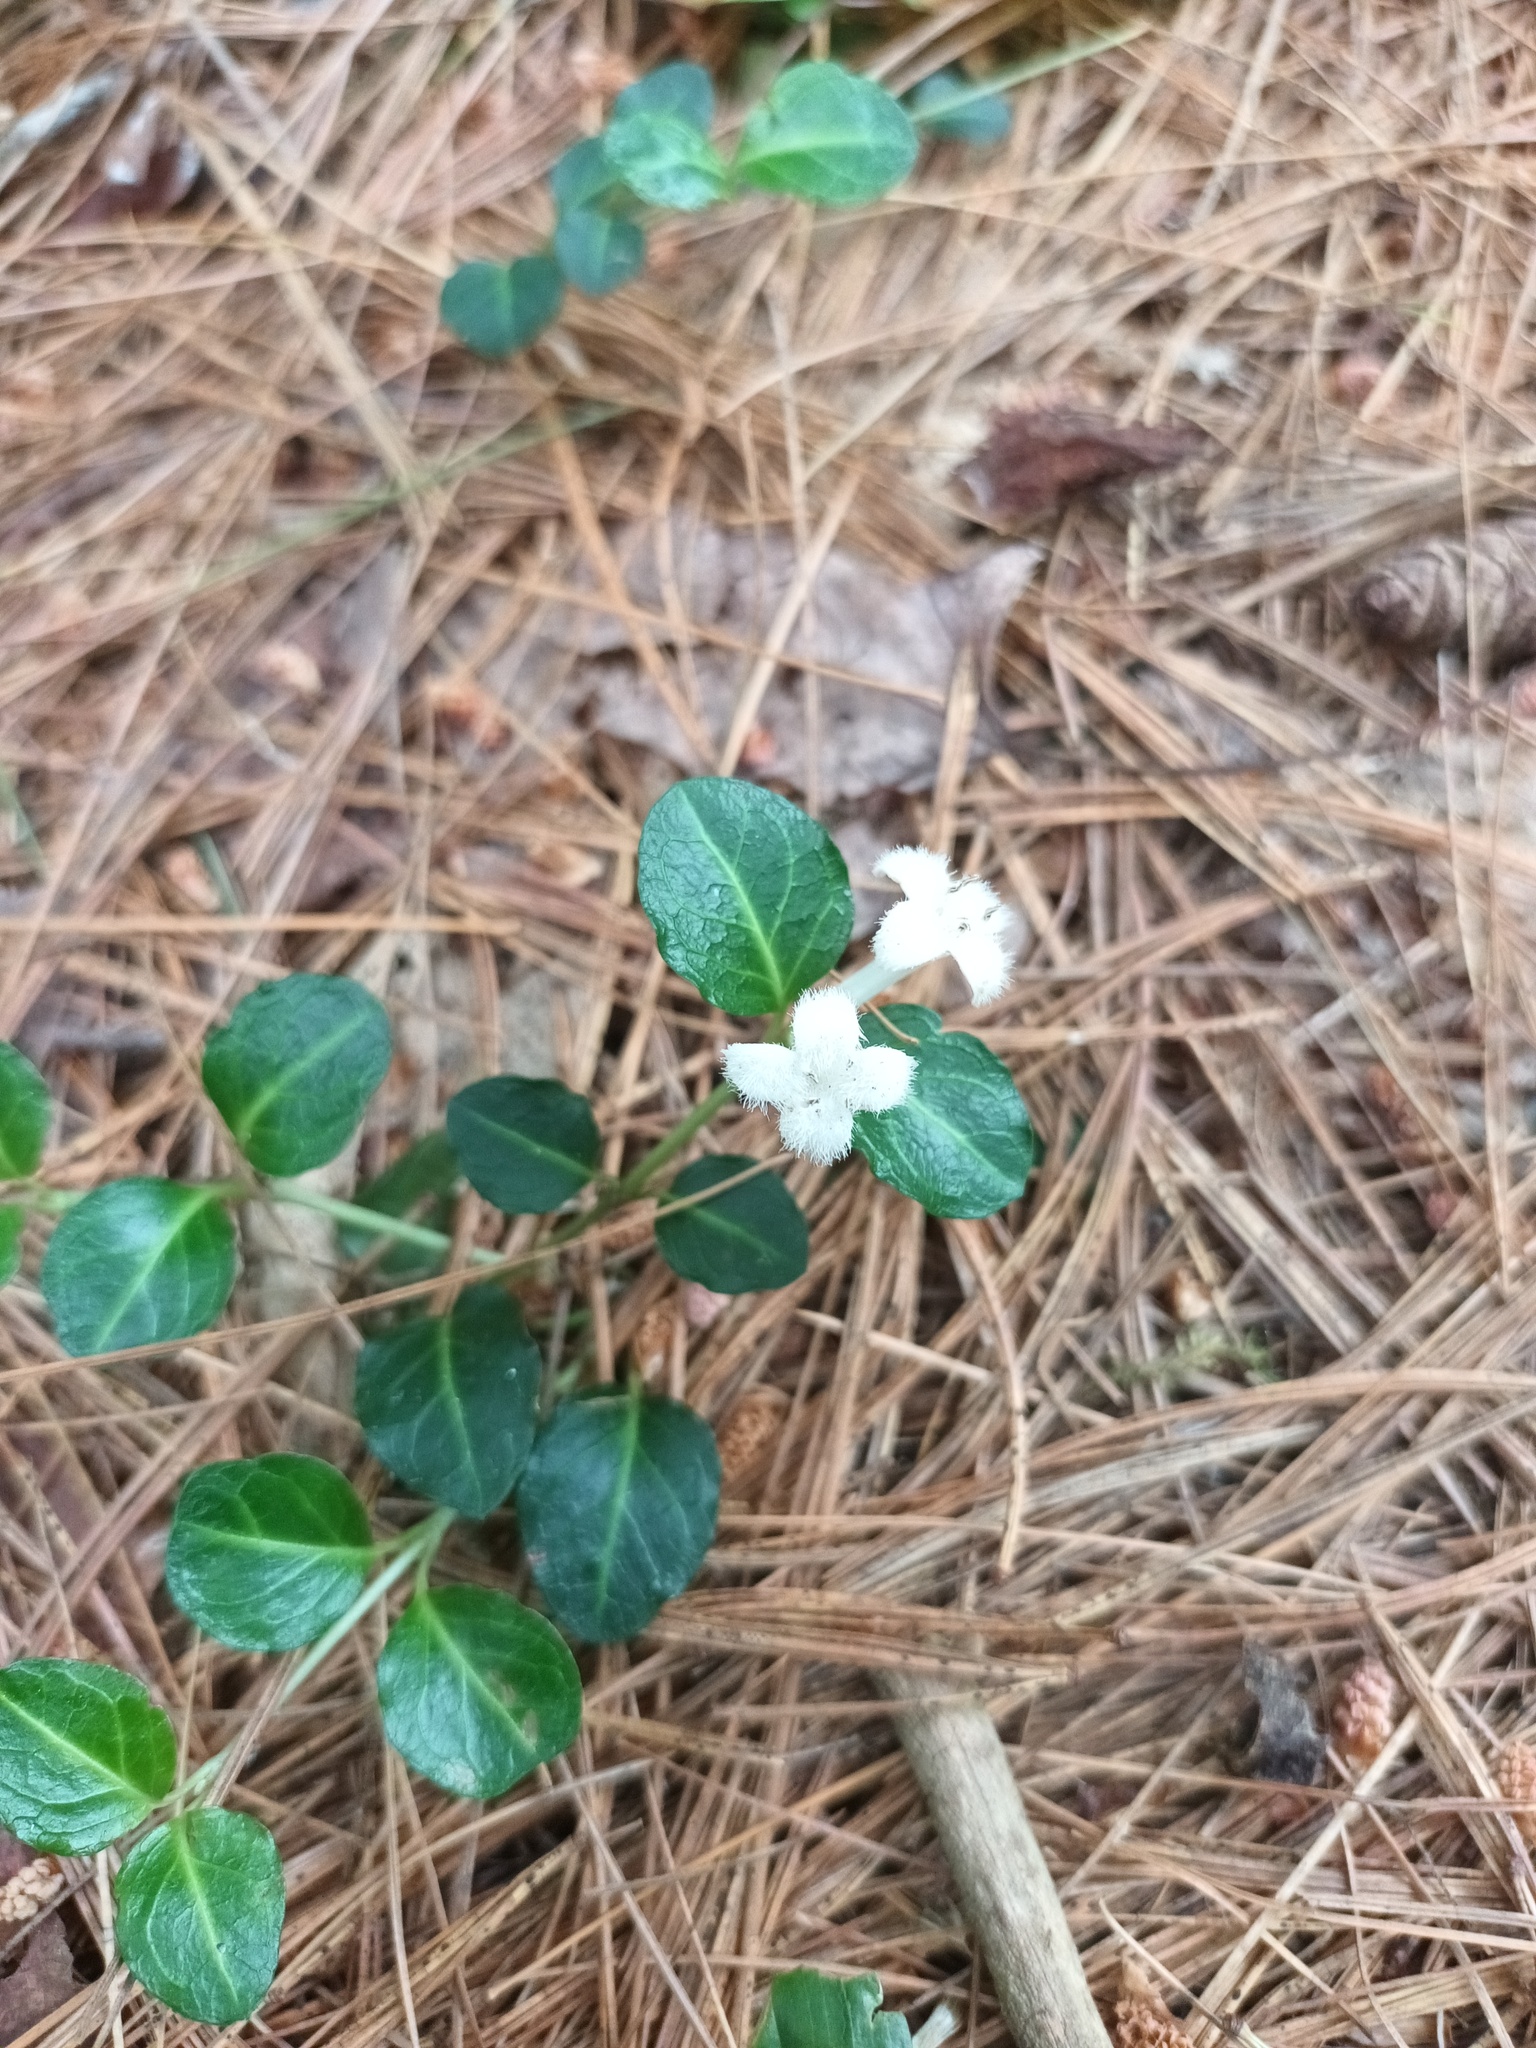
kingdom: Plantae
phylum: Tracheophyta
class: Magnoliopsida
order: Gentianales
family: Rubiaceae
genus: Mitchella
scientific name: Mitchella repens
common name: Partridge-berry
